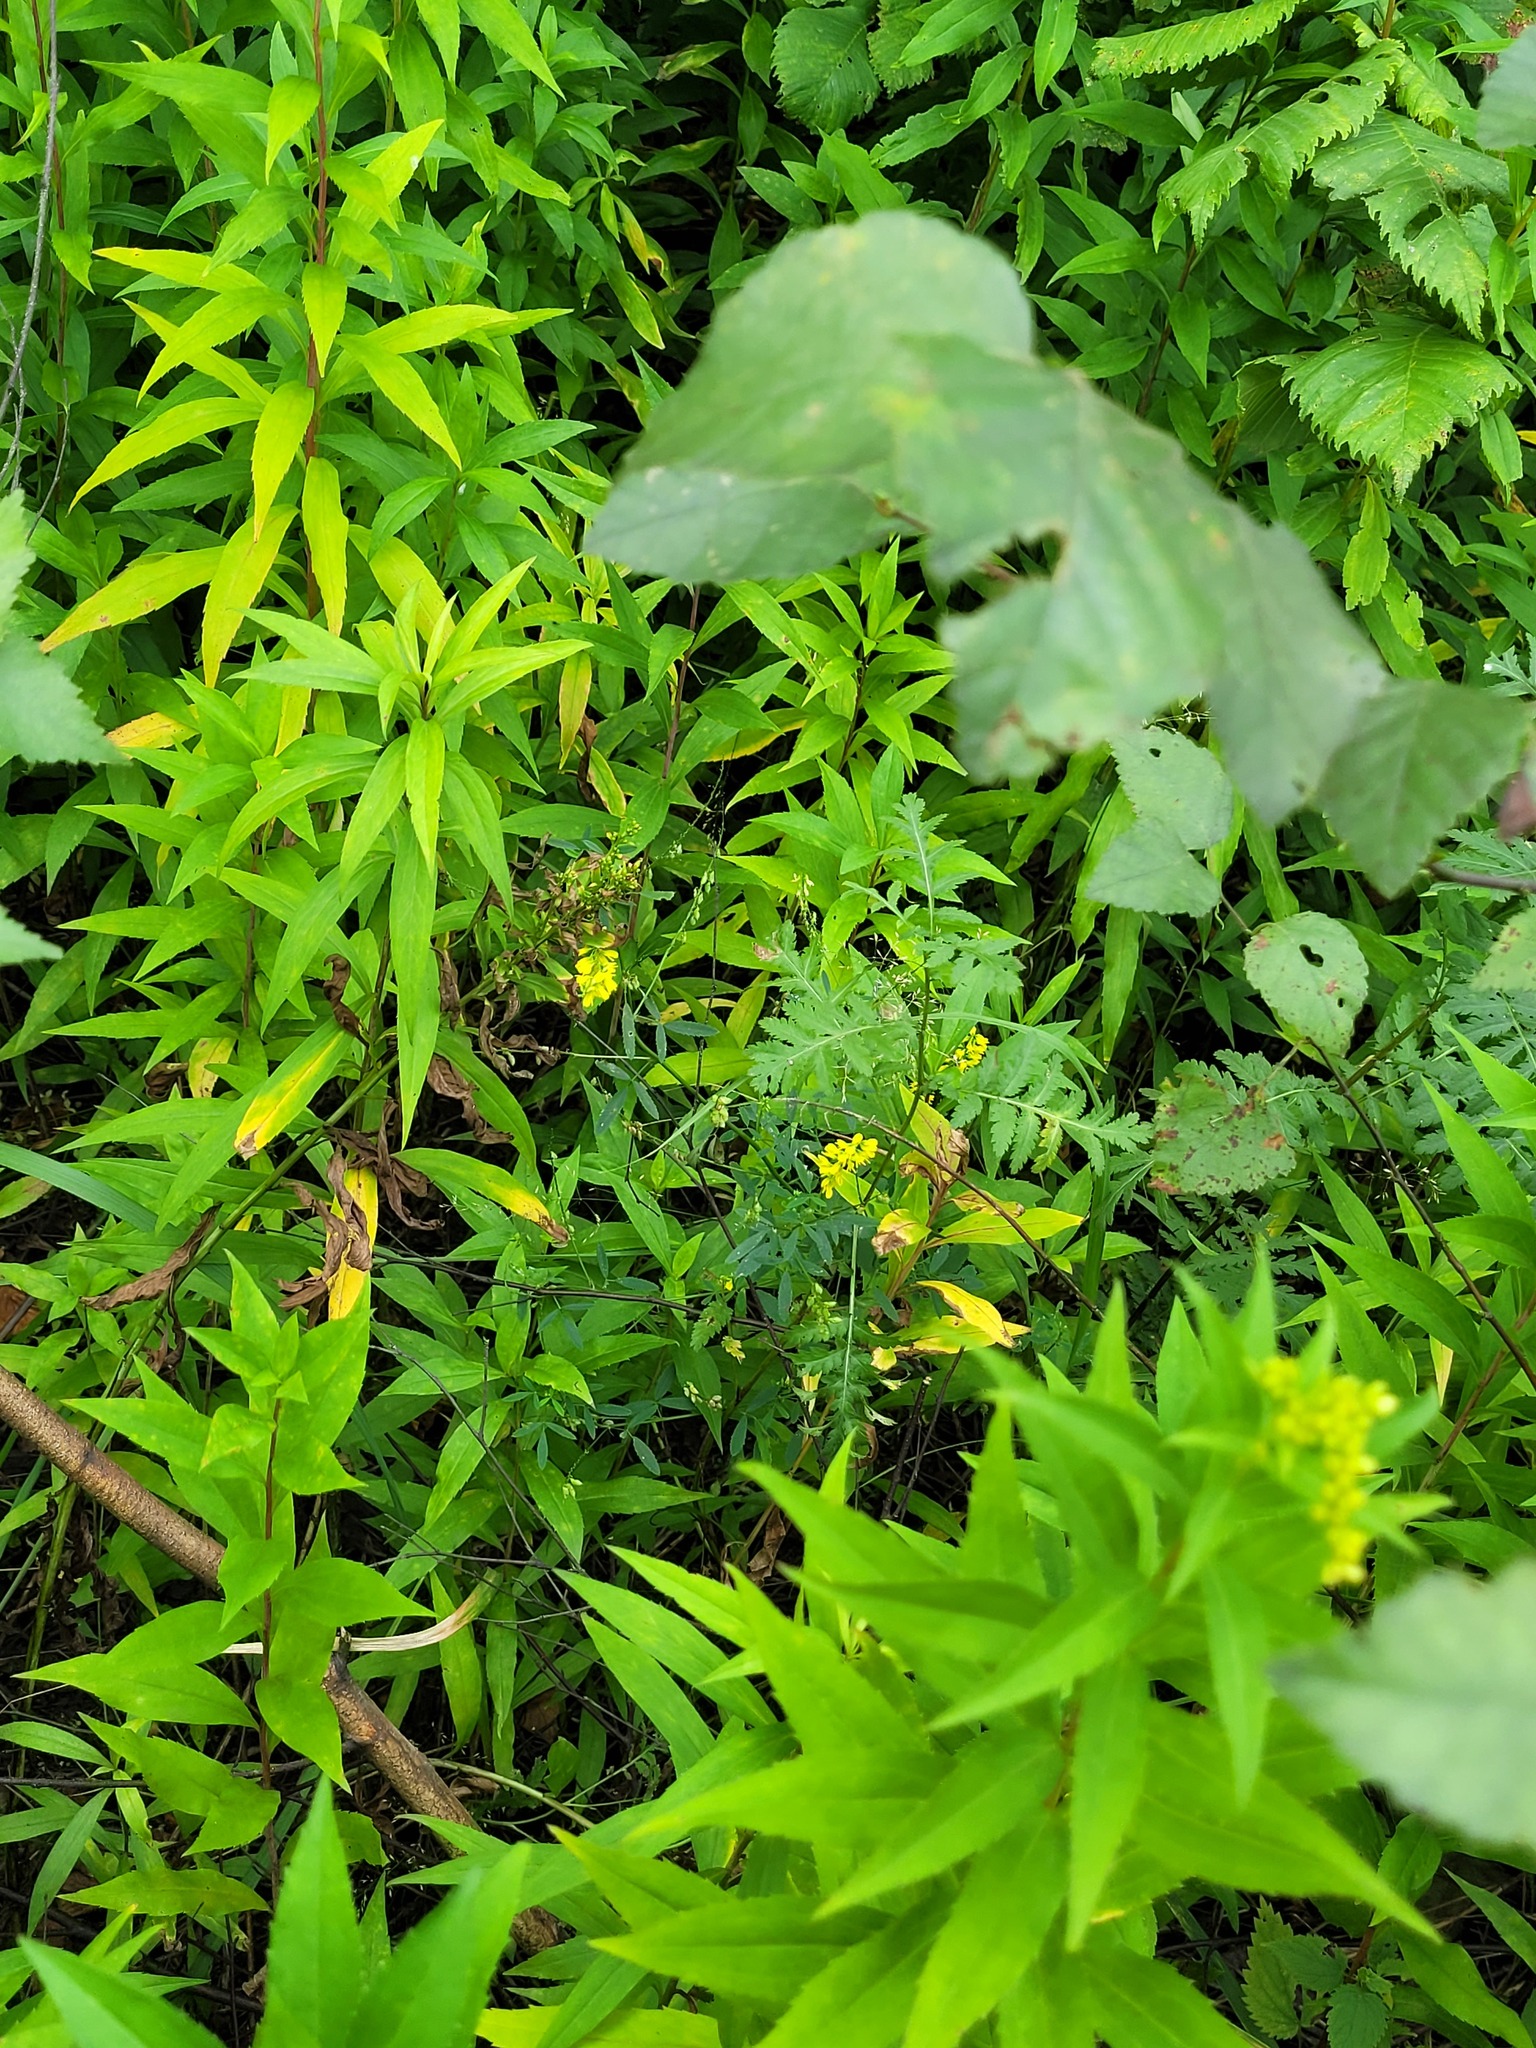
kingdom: Plantae
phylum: Tracheophyta
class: Magnoliopsida
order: Fabales
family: Fabaceae
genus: Melilotus
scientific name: Melilotus officinalis
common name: Sweetclover
